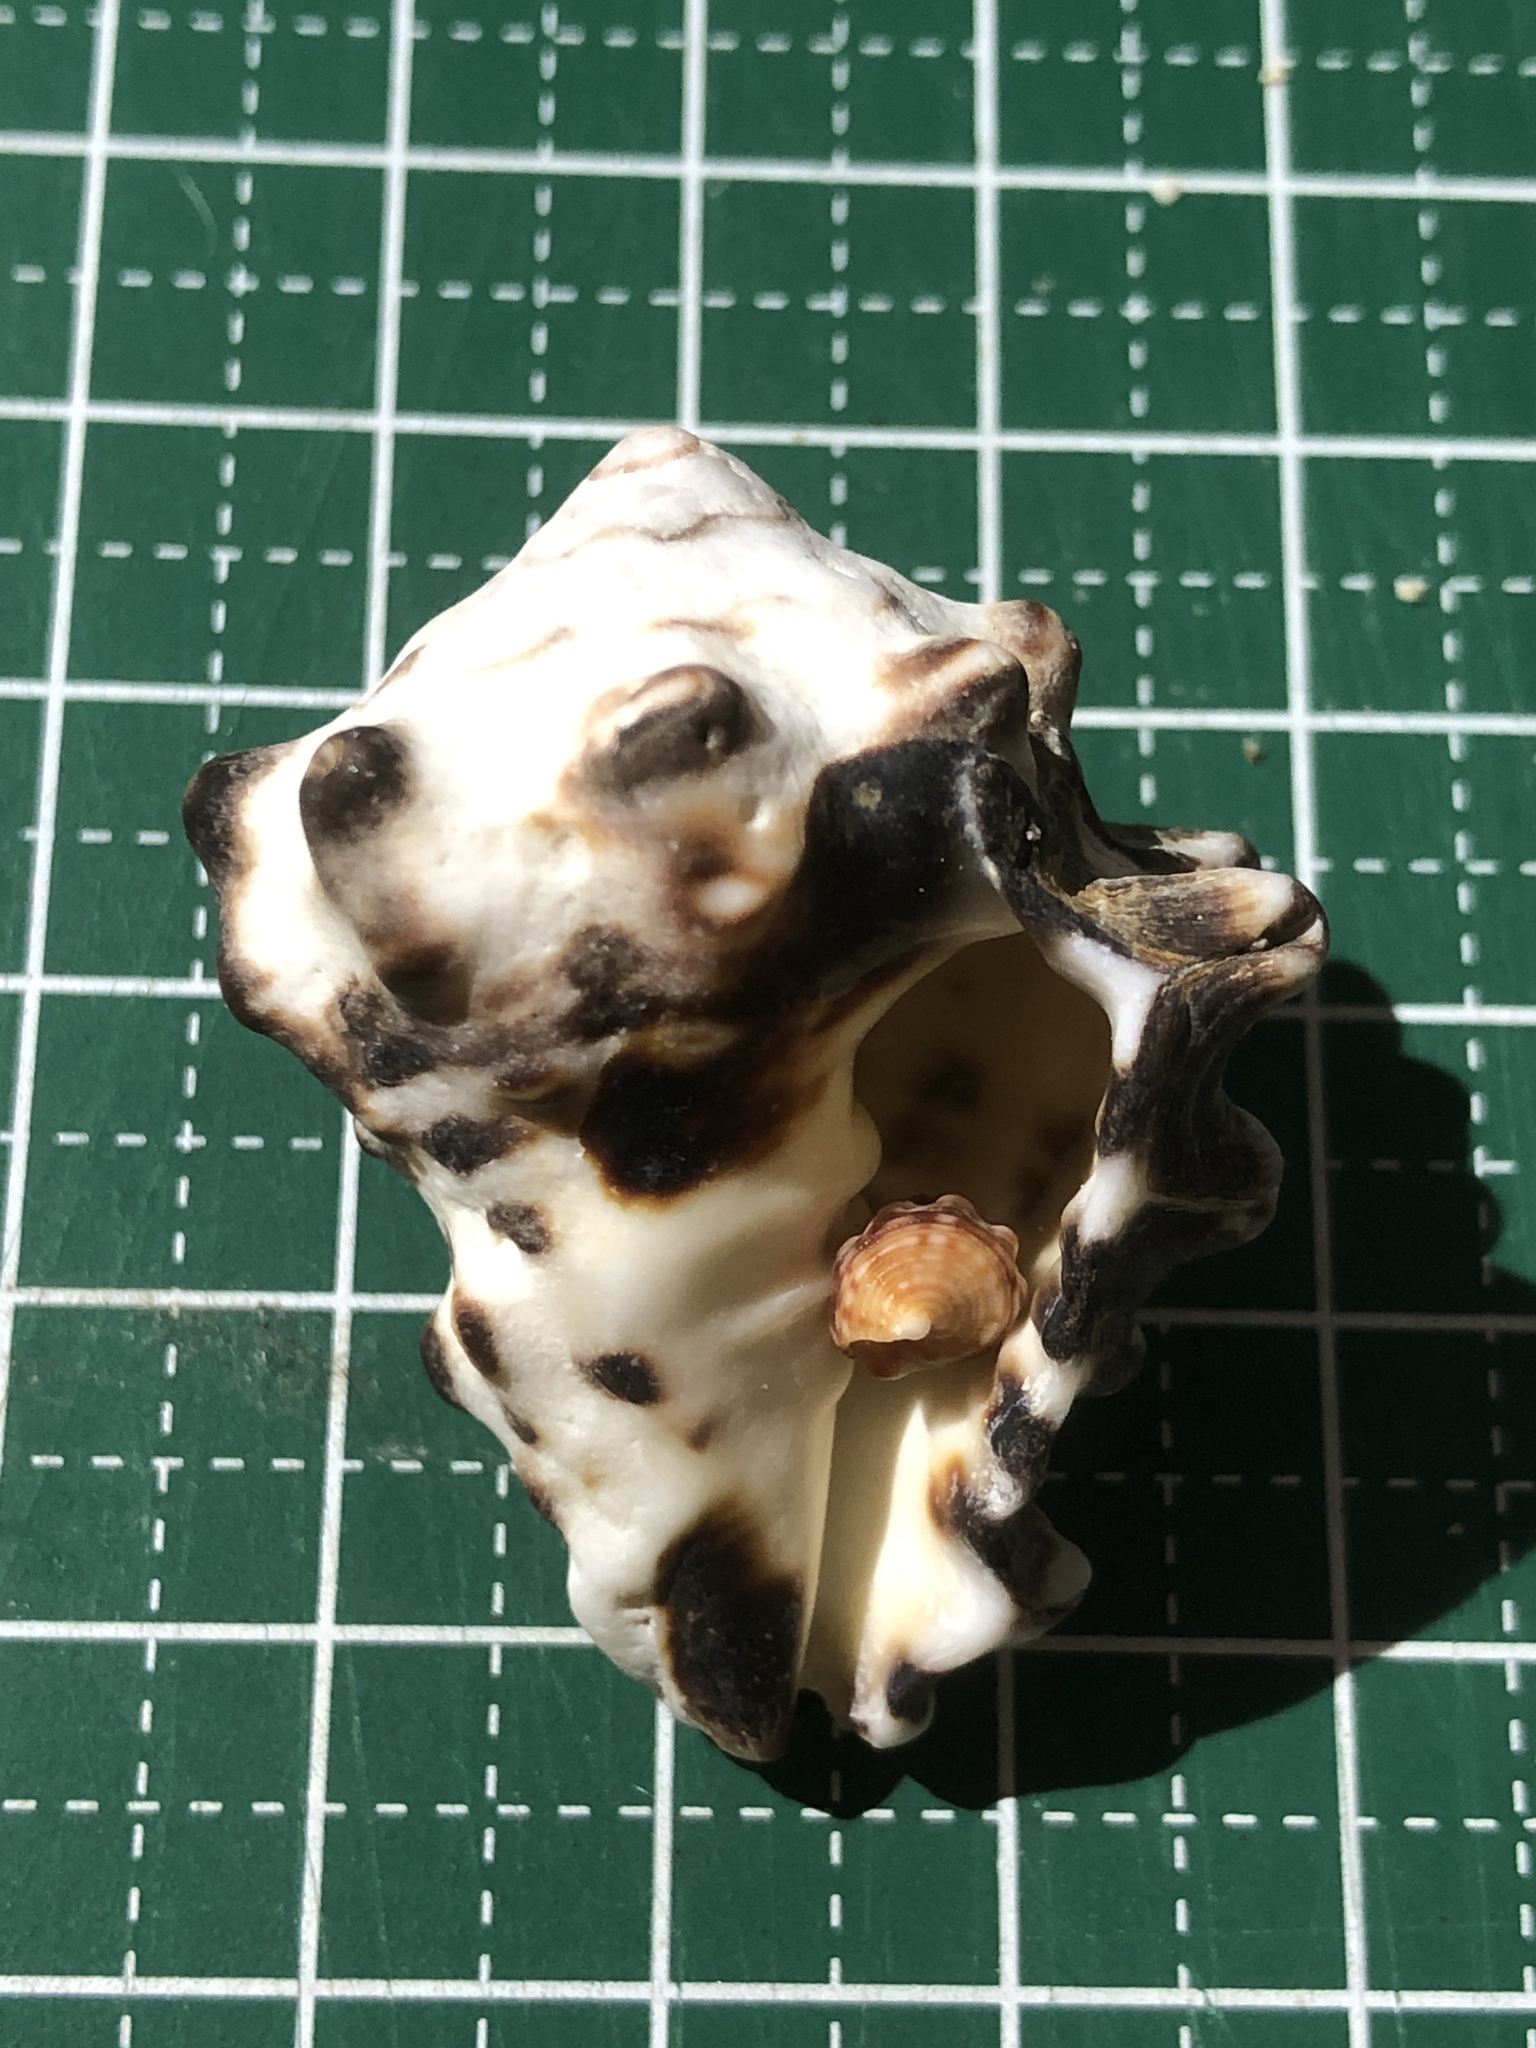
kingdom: Animalia
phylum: Mollusca
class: Gastropoda
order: Neogastropoda
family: Turbinellidae
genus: Vasum
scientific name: Vasum turbinellus
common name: Pacific top vase
